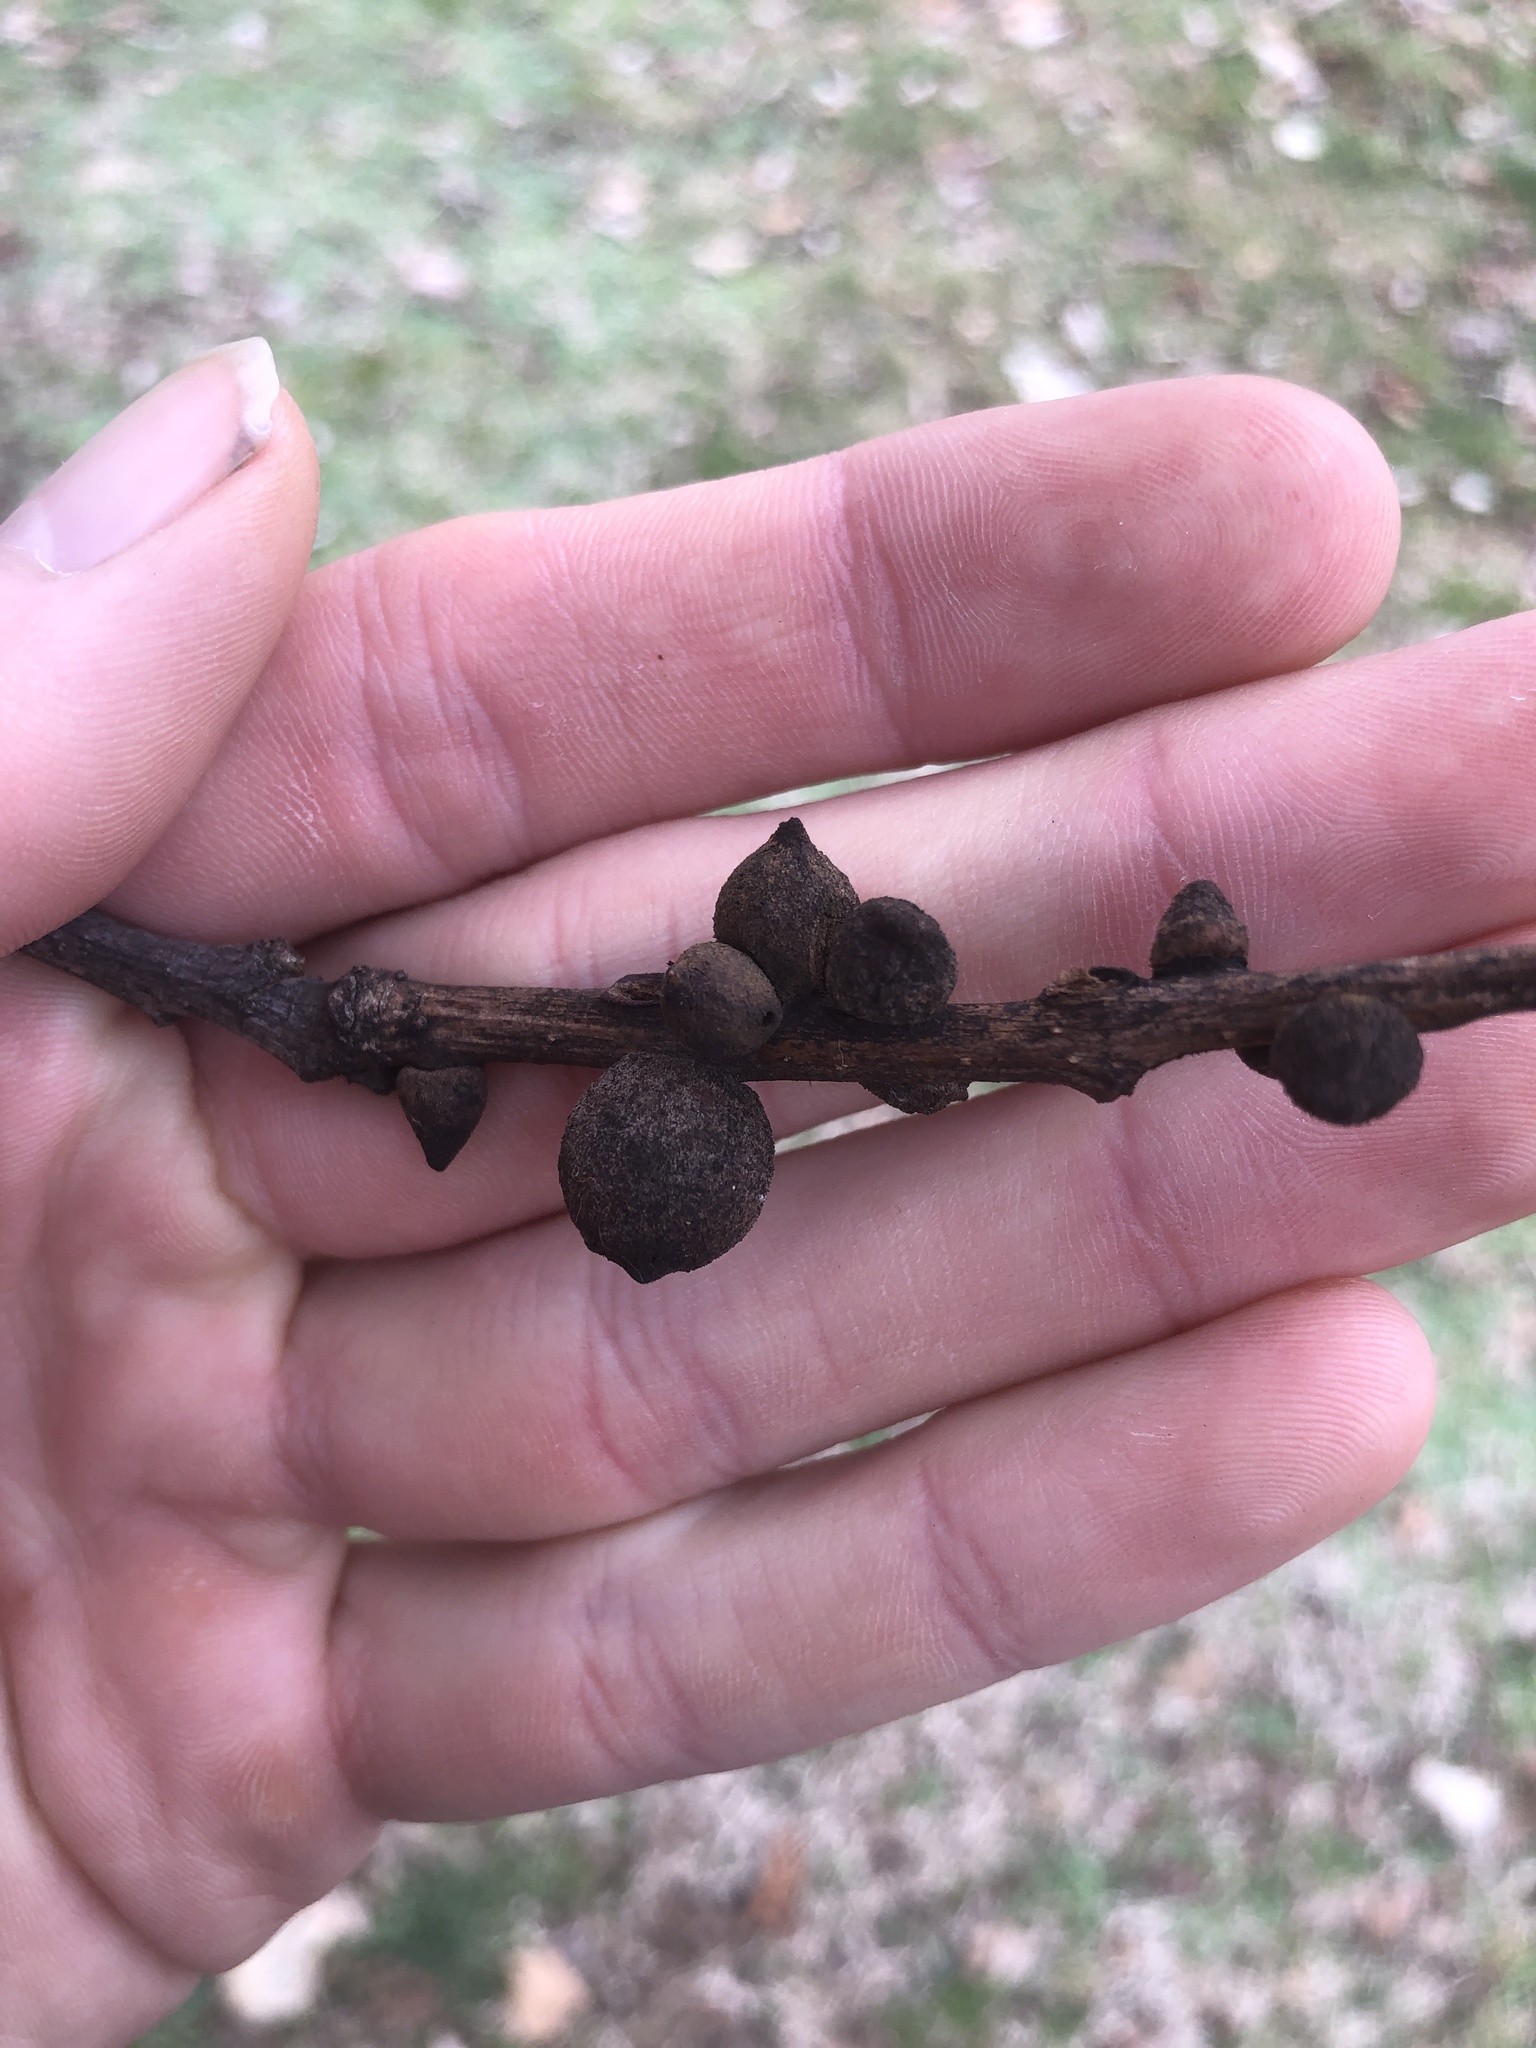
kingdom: Animalia
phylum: Arthropoda
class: Insecta
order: Hymenoptera
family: Cynipidae
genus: Disholcaspis
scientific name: Disholcaspis
